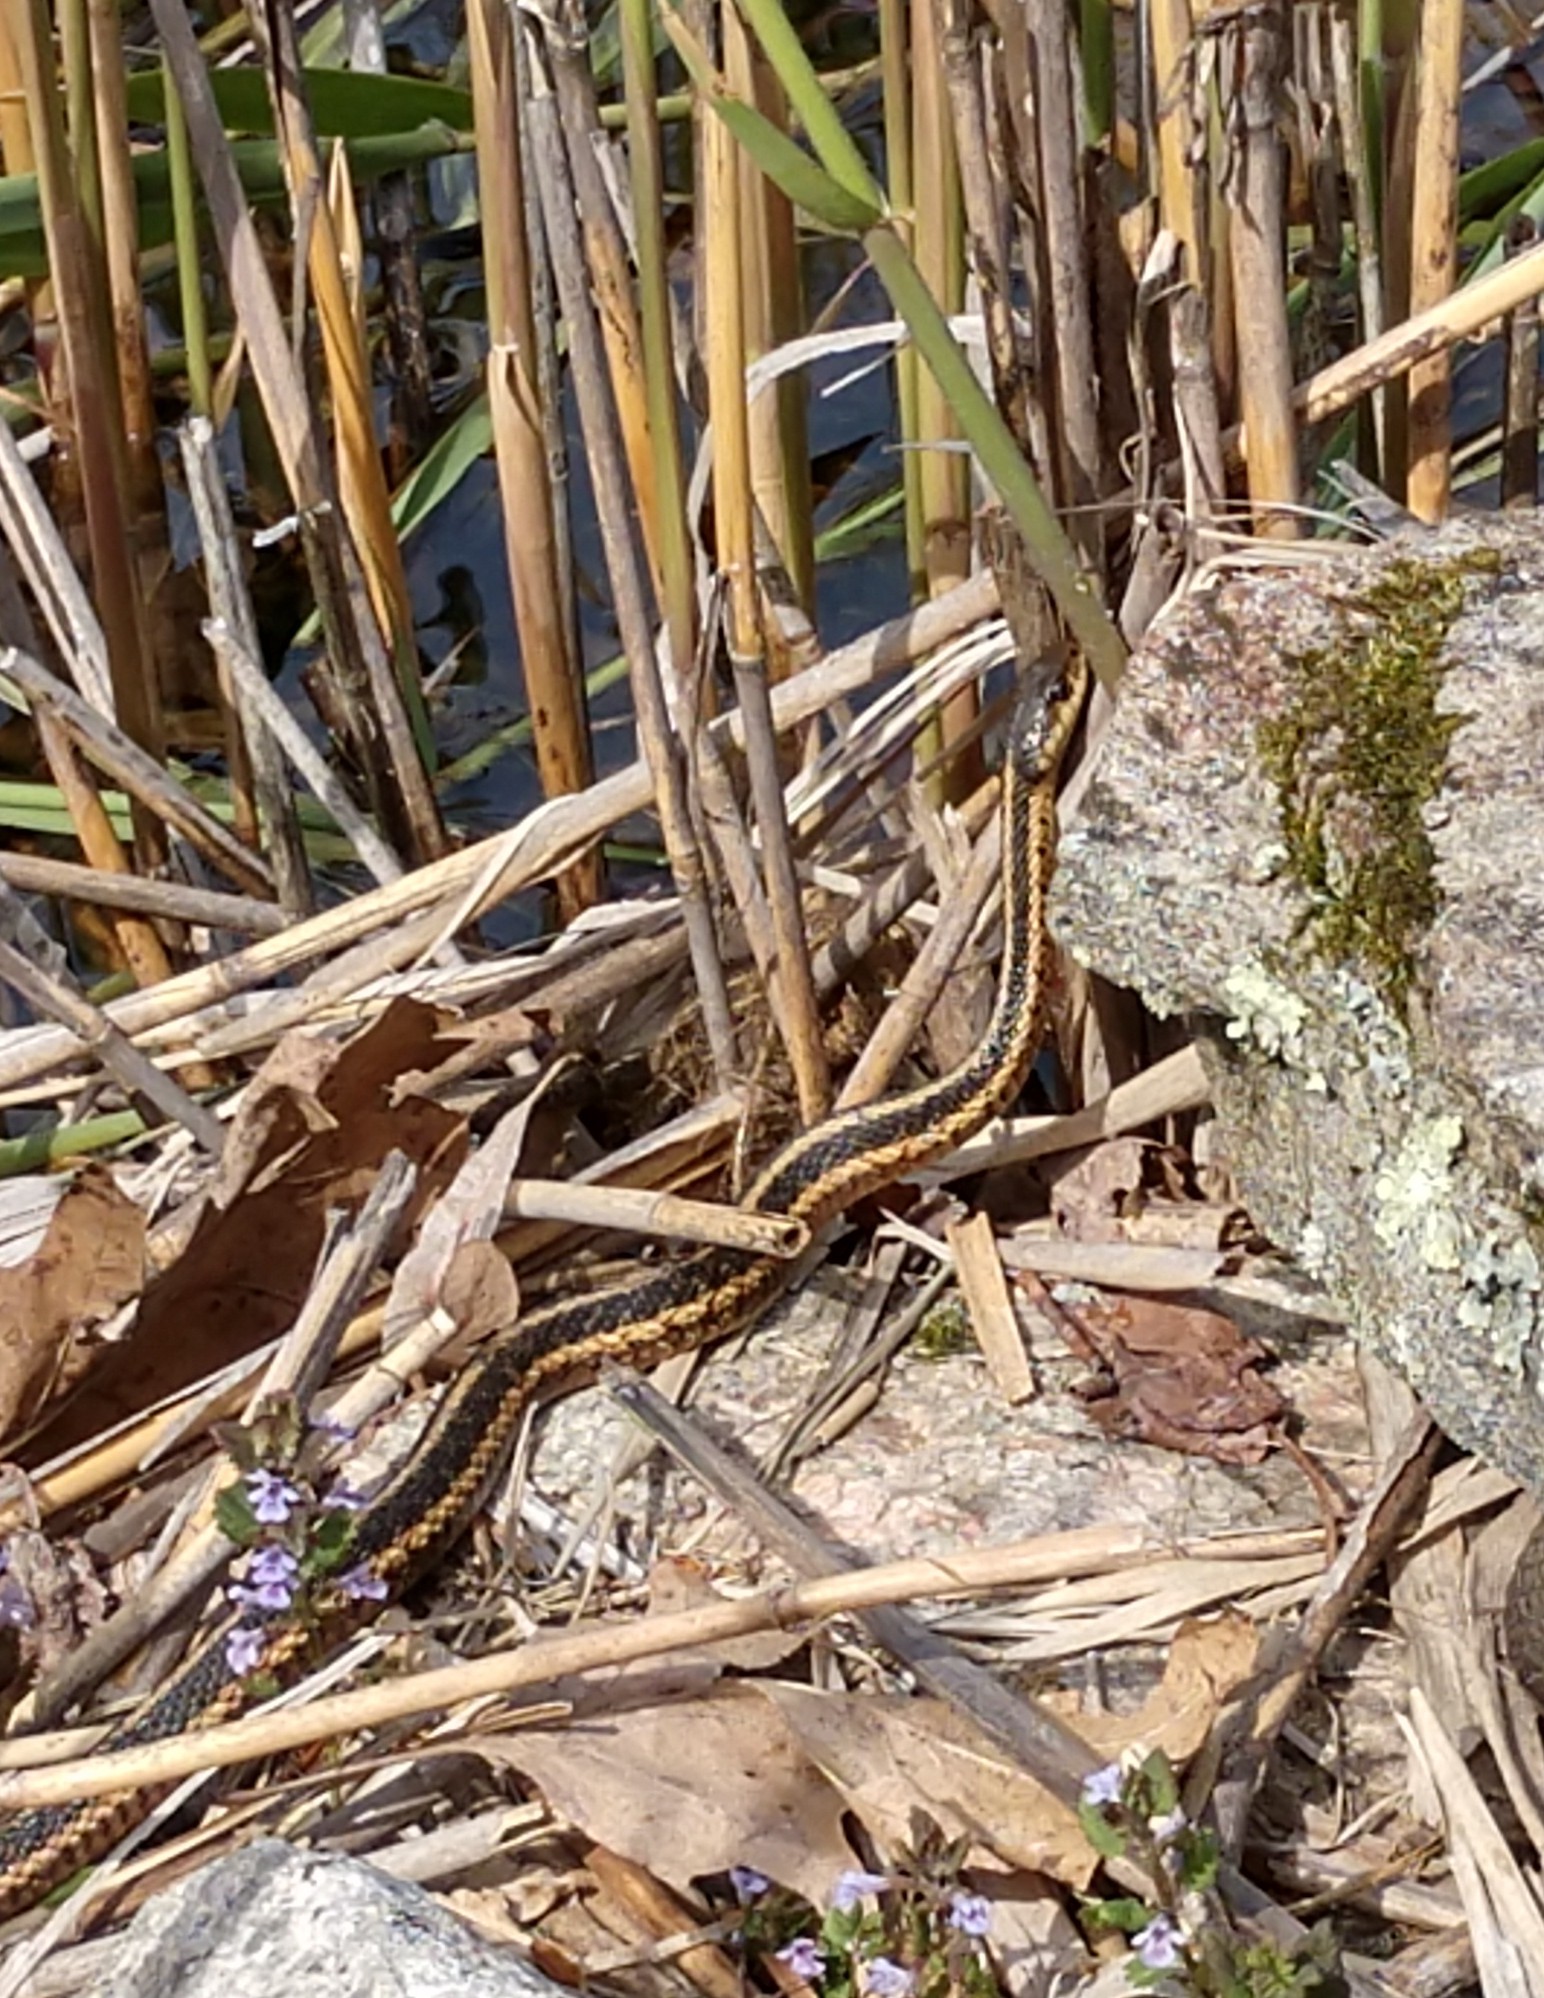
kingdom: Animalia
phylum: Chordata
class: Squamata
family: Colubridae
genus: Thamnophis
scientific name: Thamnophis sirtalis
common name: Common garter snake
